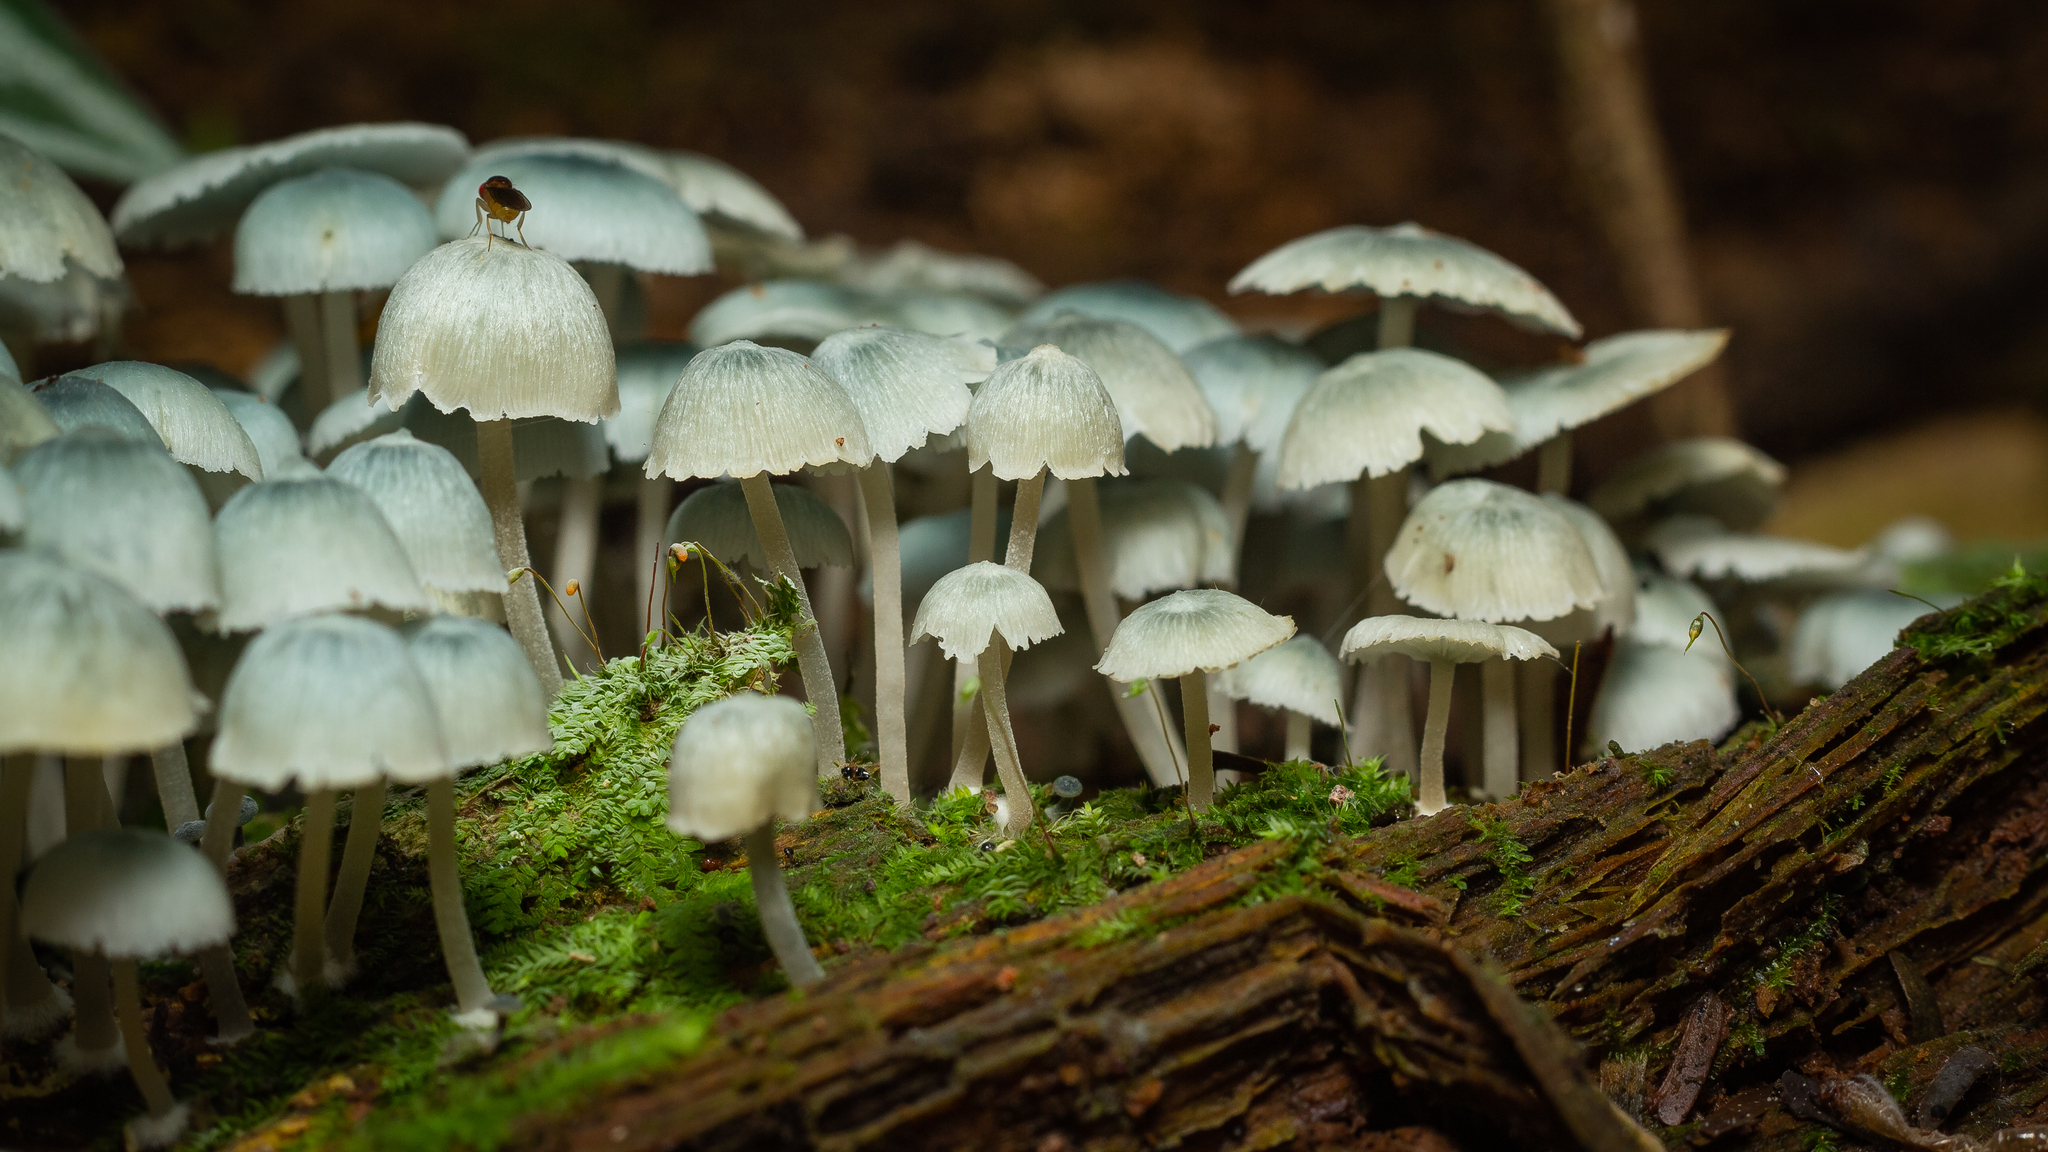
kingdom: Fungi
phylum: Basidiomycota
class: Agaricomycetes
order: Agaricales
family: Marasmiaceae
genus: Clitocybula
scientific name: Clitocybula azurea
